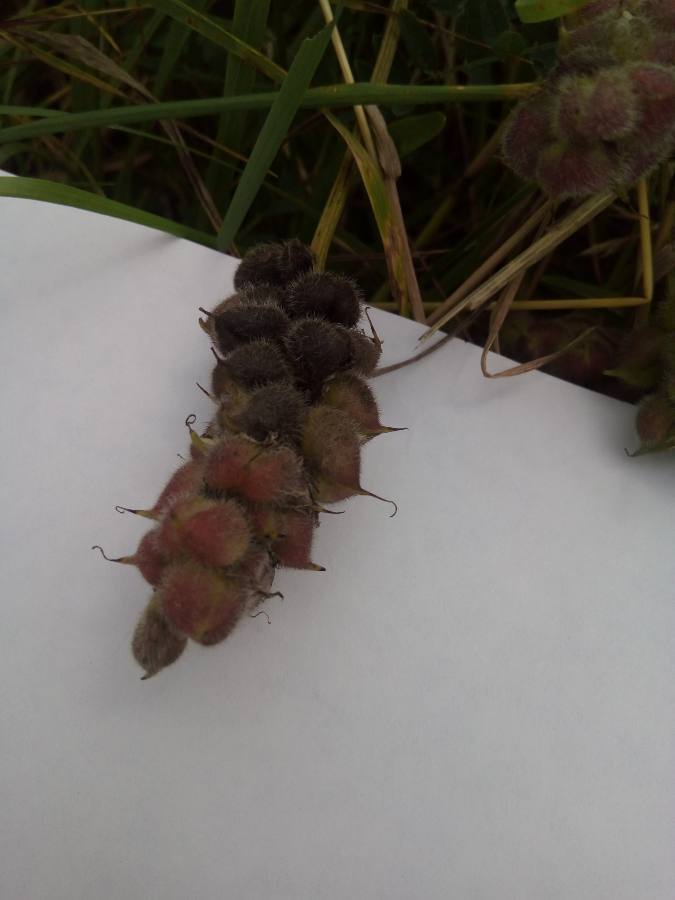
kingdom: Plantae
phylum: Tracheophyta
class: Magnoliopsida
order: Fabales
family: Fabaceae
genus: Astragalus
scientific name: Astragalus cicer
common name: Chick-pea milk-vetch
